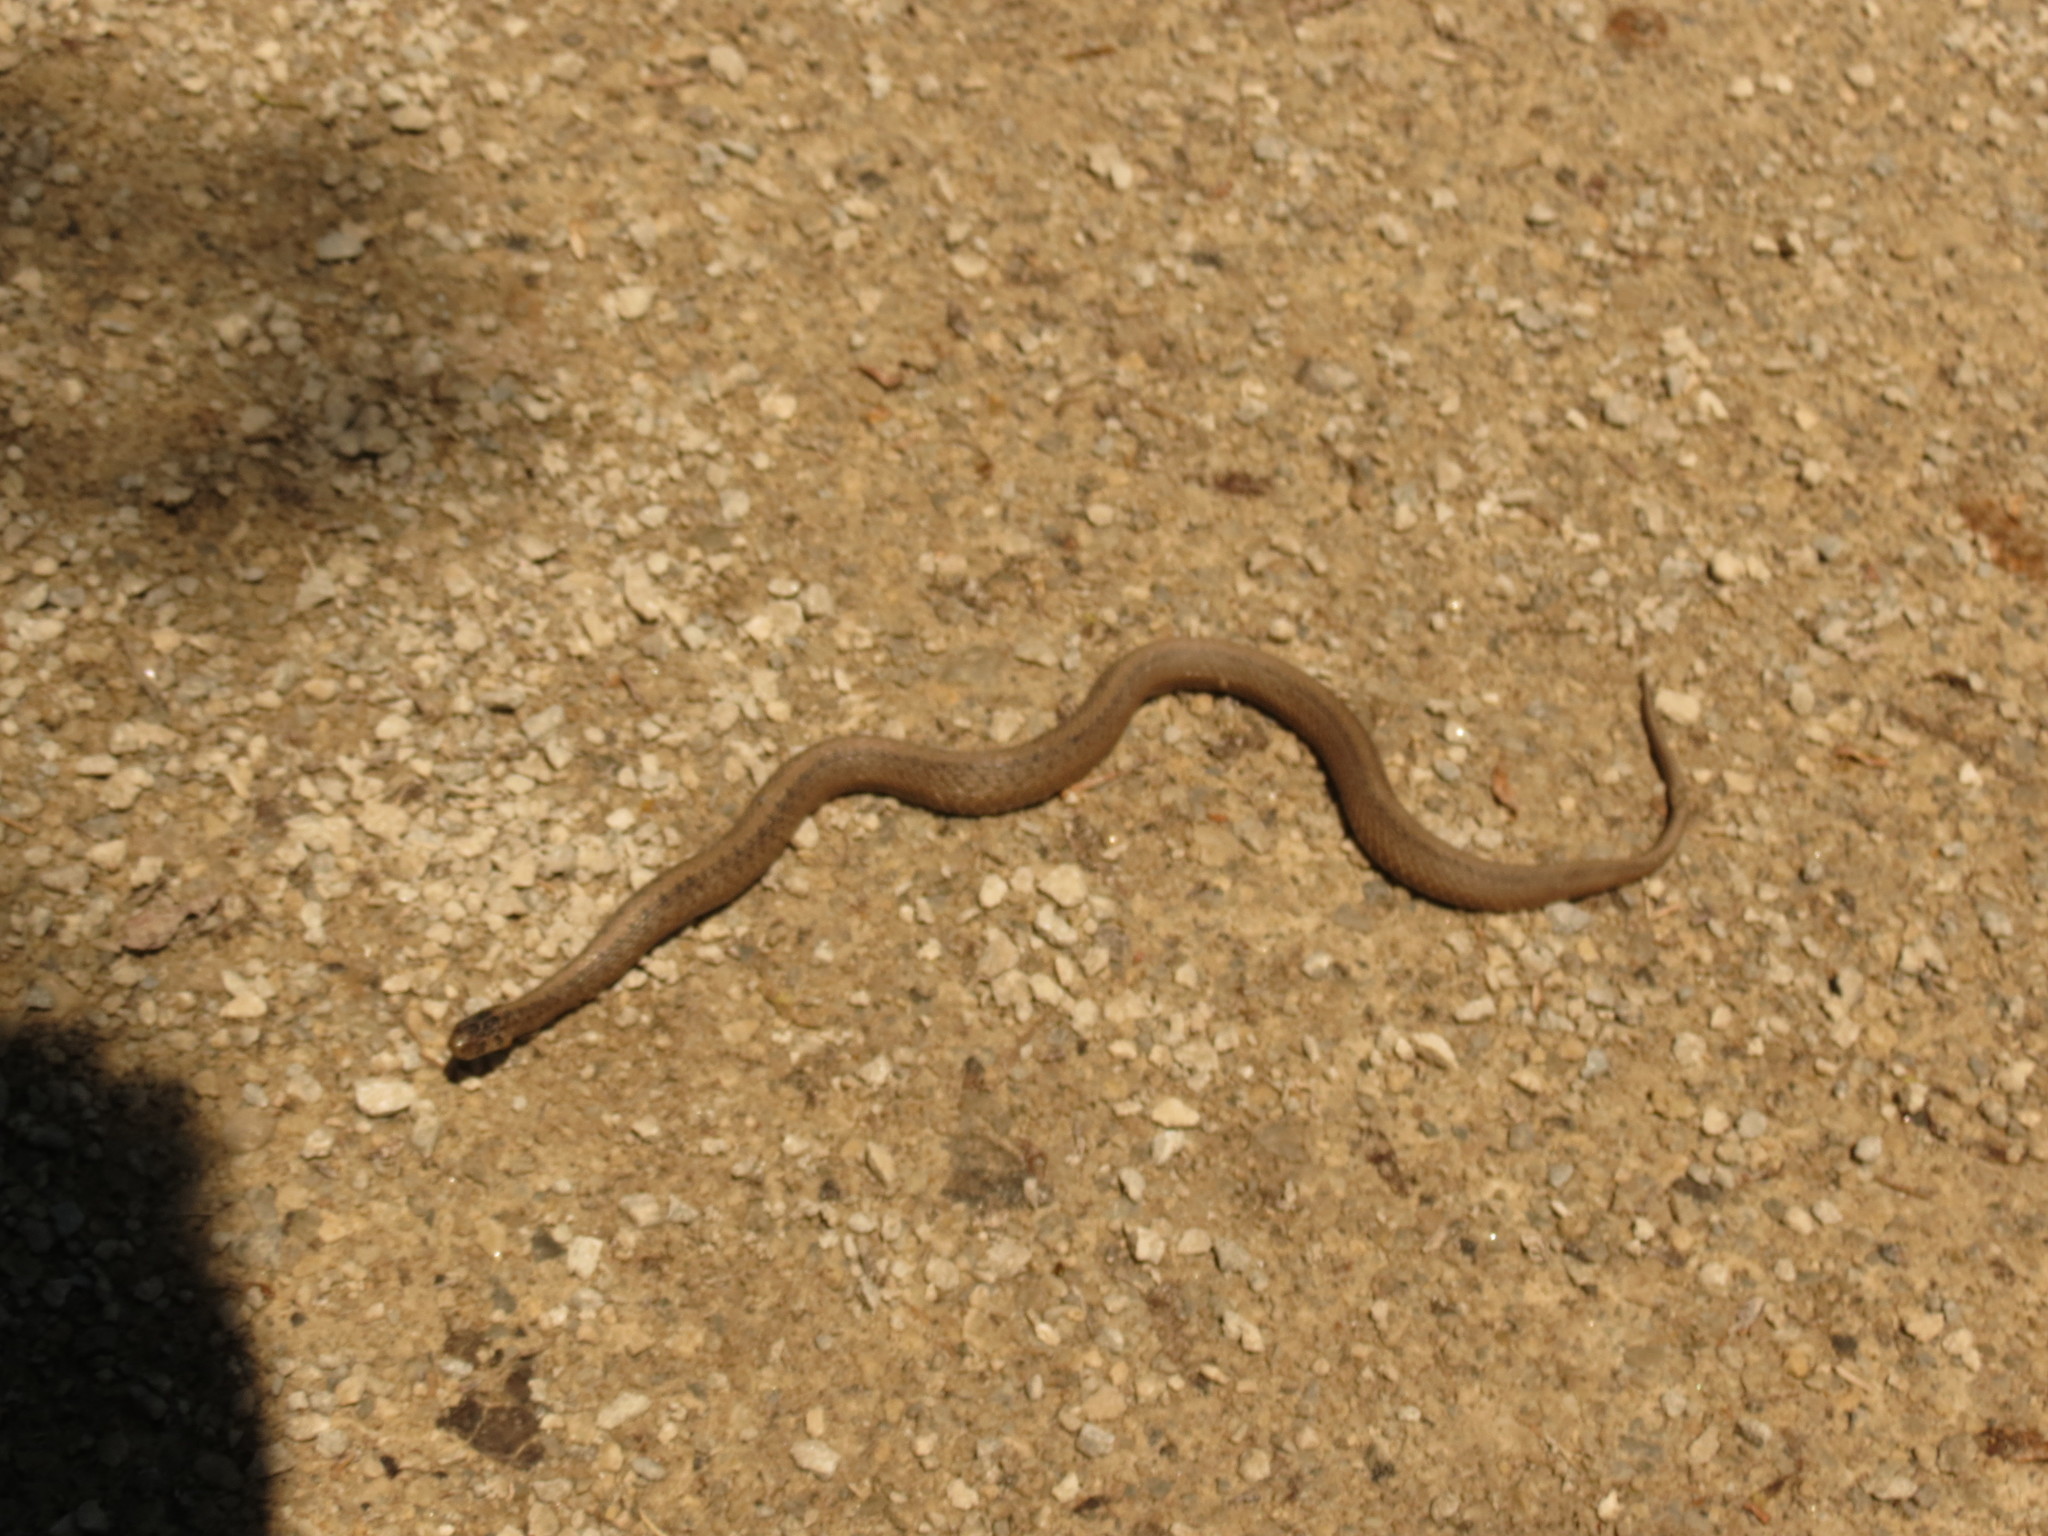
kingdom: Animalia
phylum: Chordata
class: Squamata
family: Colubridae
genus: Storeria
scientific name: Storeria dekayi
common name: (dekay’s) brown snake
